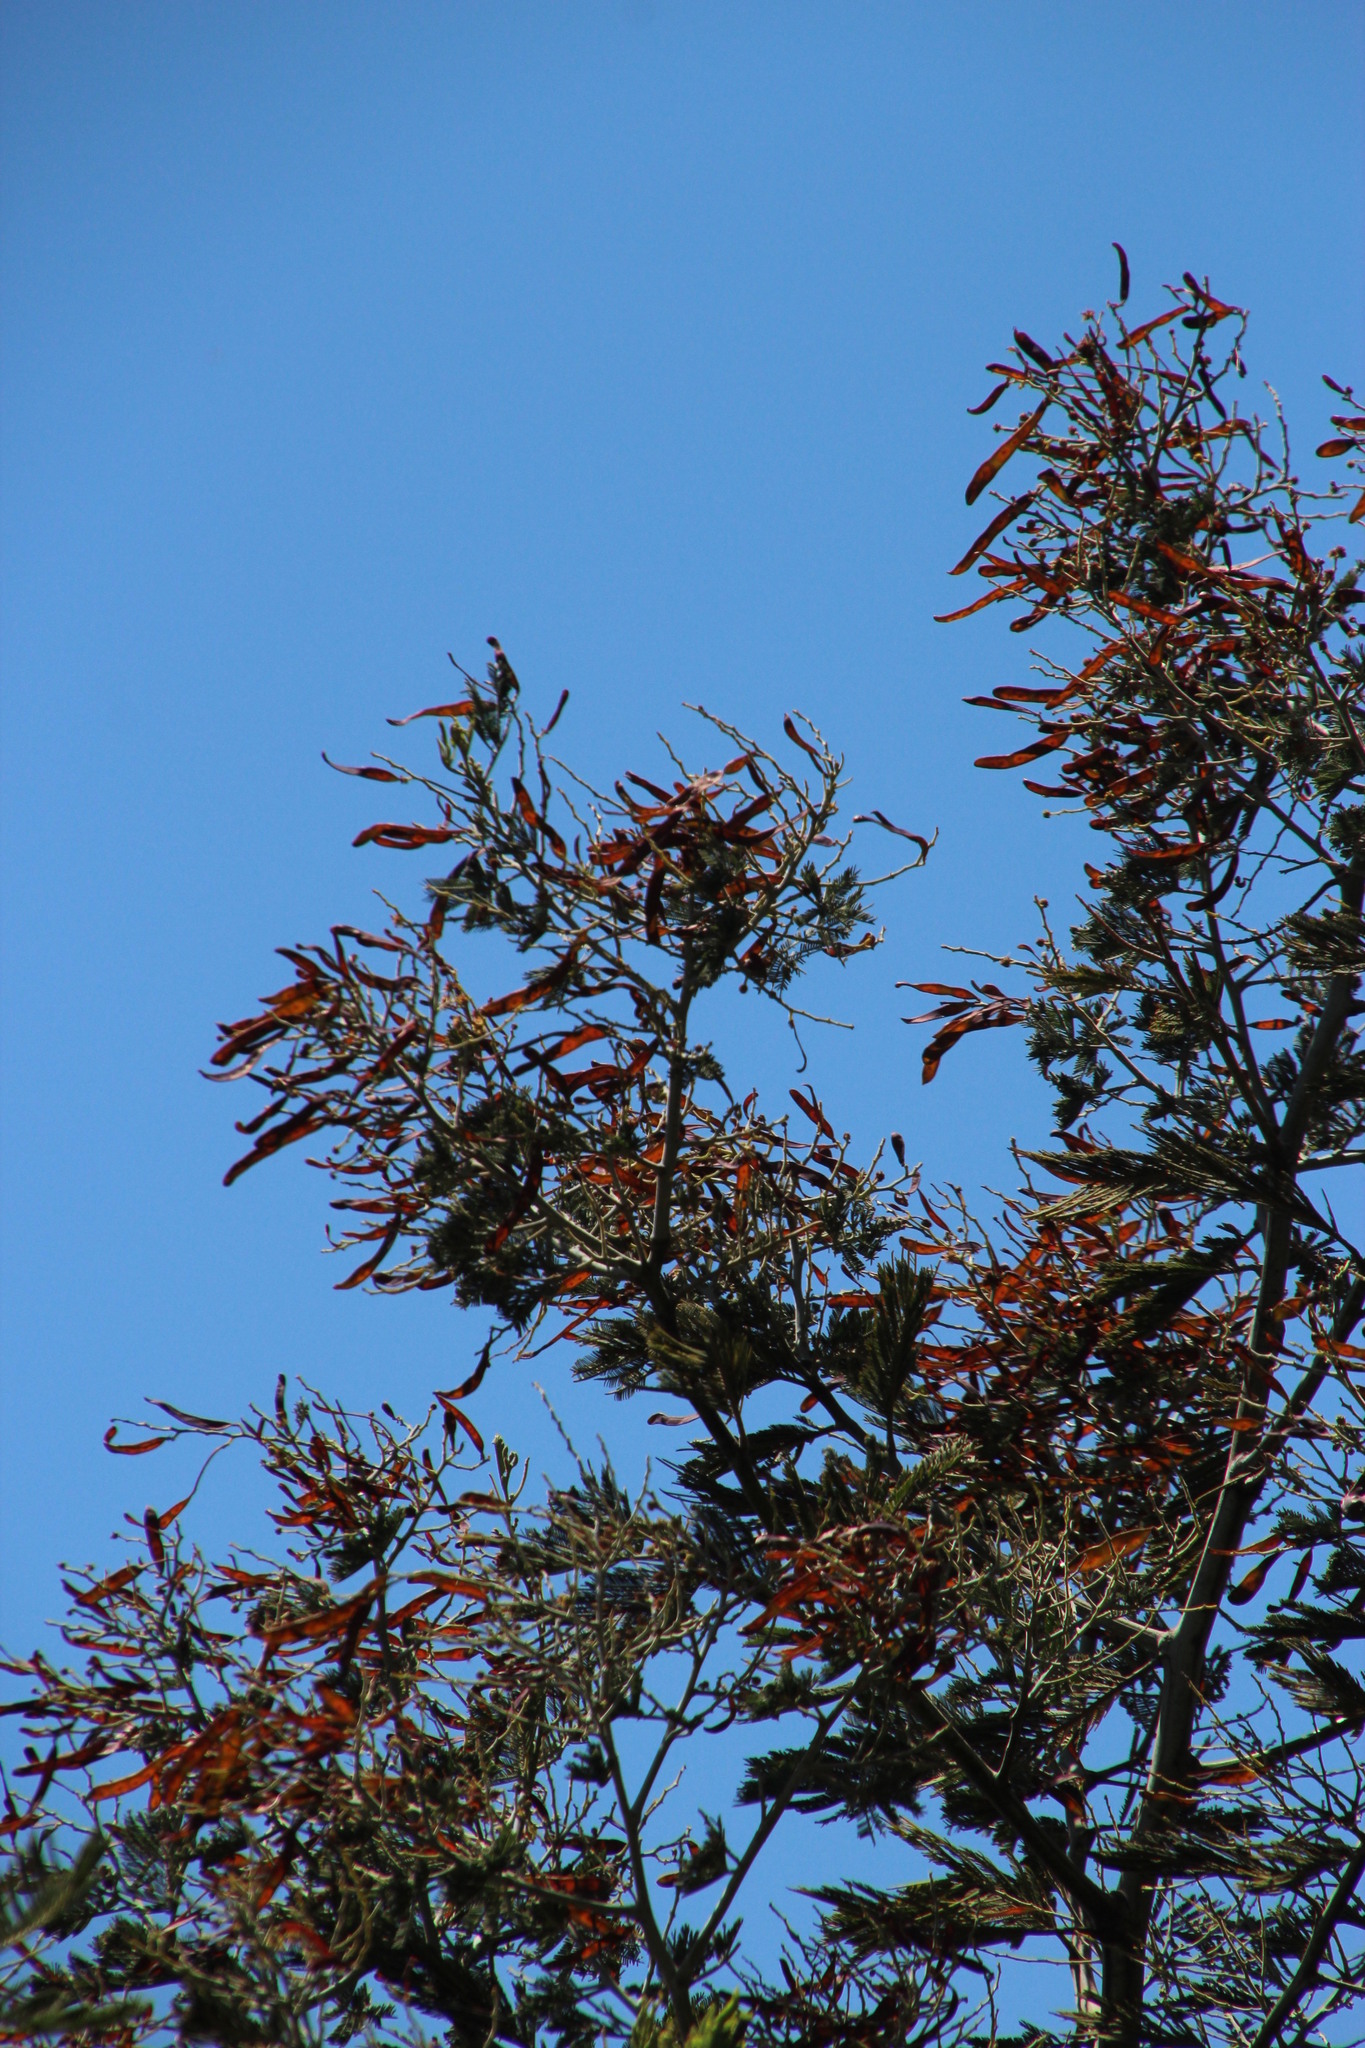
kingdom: Plantae
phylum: Tracheophyta
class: Magnoliopsida
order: Fabales
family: Fabaceae
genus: Acacia
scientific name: Acacia mearnsii
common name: Black wattle
